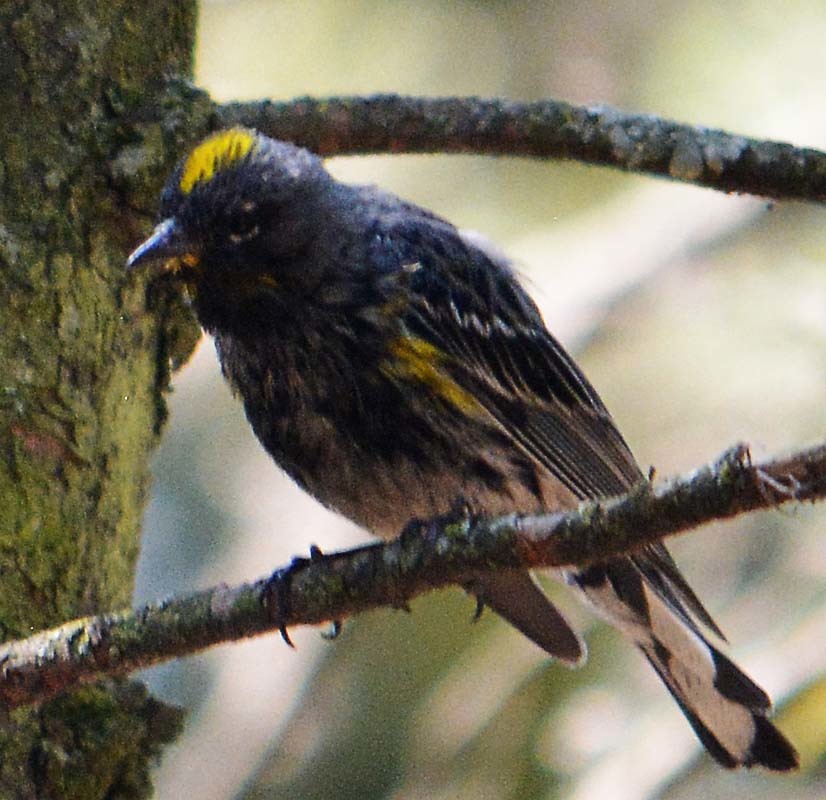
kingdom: Animalia
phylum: Chordata
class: Aves
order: Passeriformes
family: Parulidae
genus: Setophaga
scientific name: Setophaga coronata
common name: Myrtle warbler
